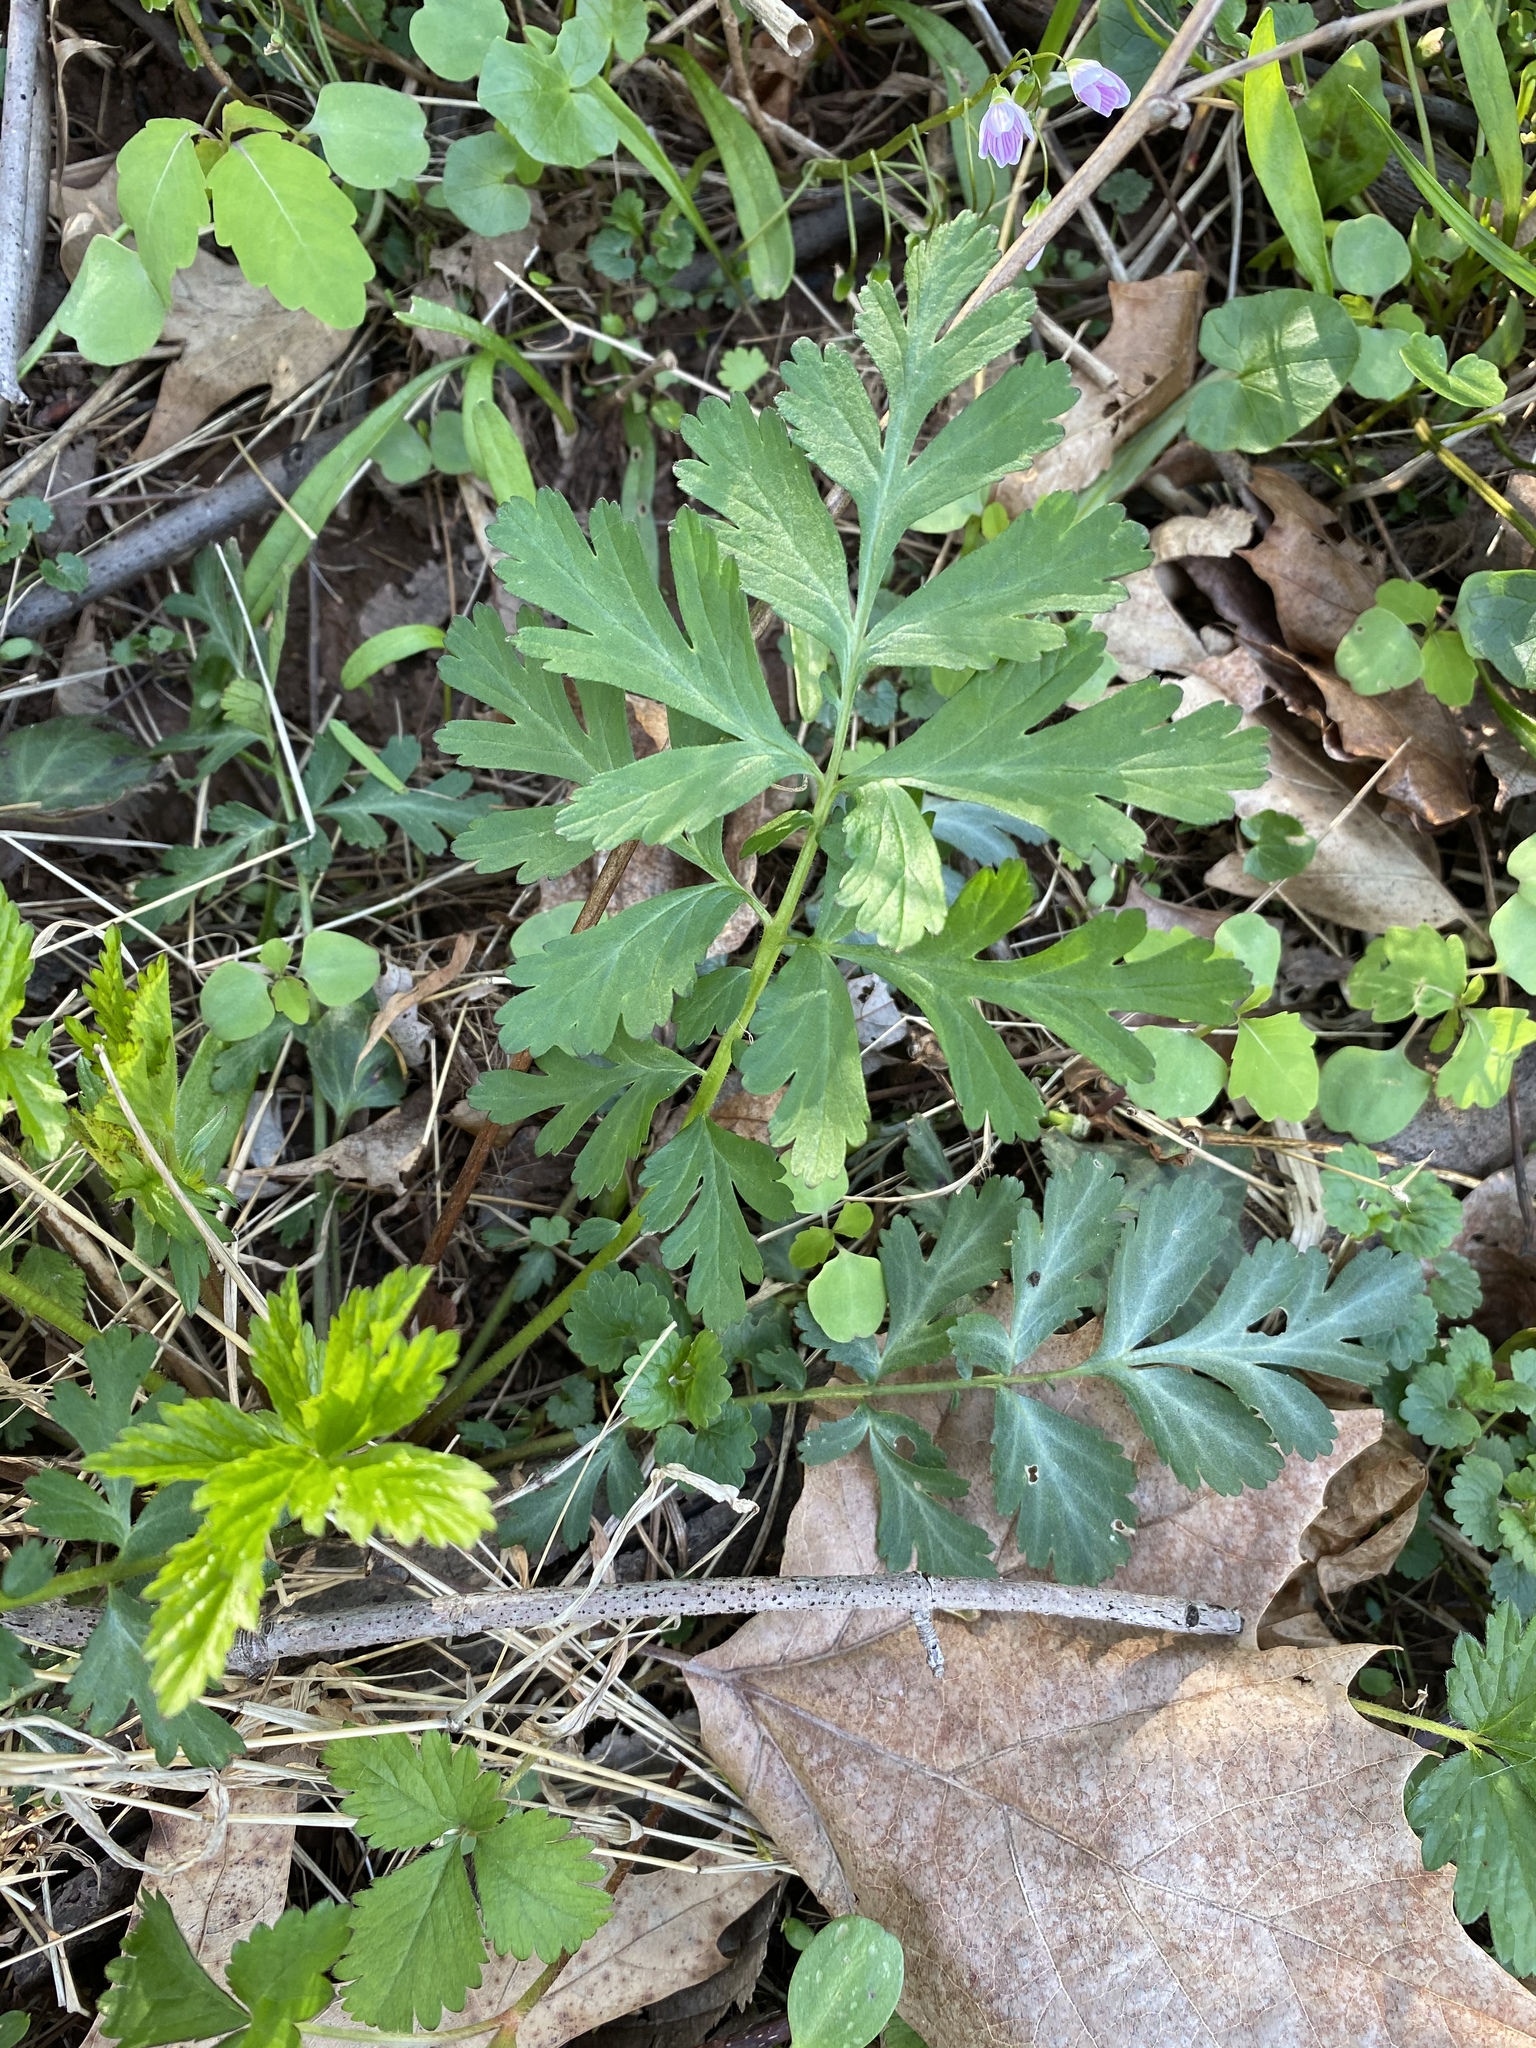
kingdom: Plantae
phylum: Tracheophyta
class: Magnoliopsida
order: Rosales
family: Rosaceae
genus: Geum
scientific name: Geum canadense
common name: White avens
